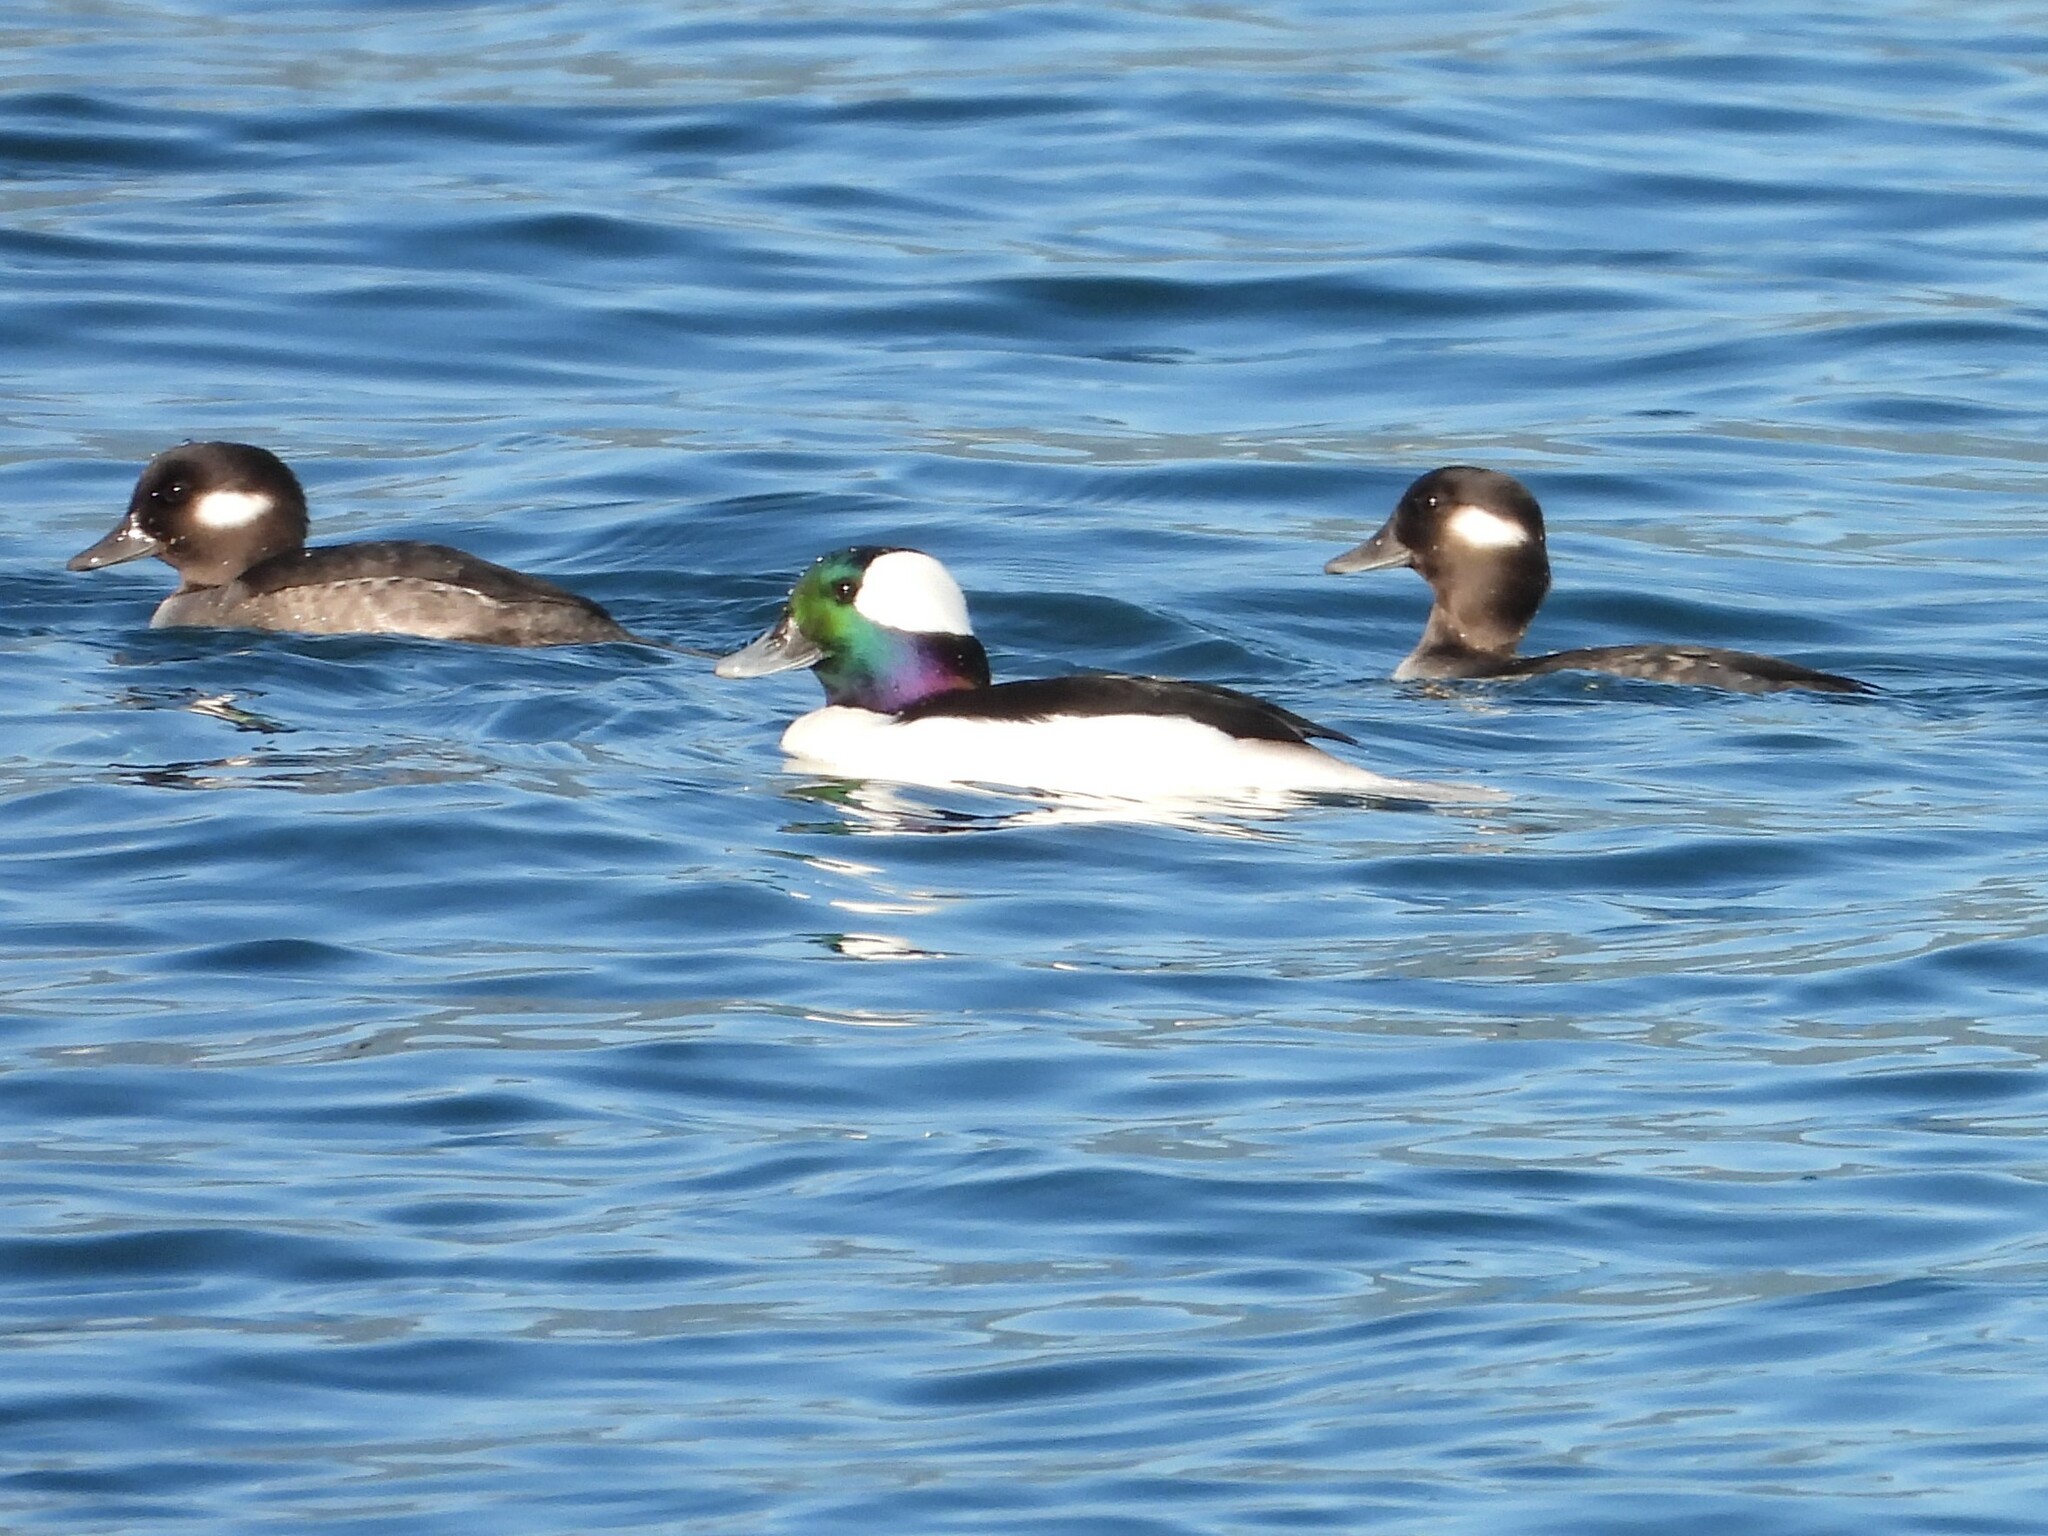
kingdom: Animalia
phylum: Chordata
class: Aves
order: Anseriformes
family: Anatidae
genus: Bucephala
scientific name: Bucephala albeola
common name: Bufflehead
